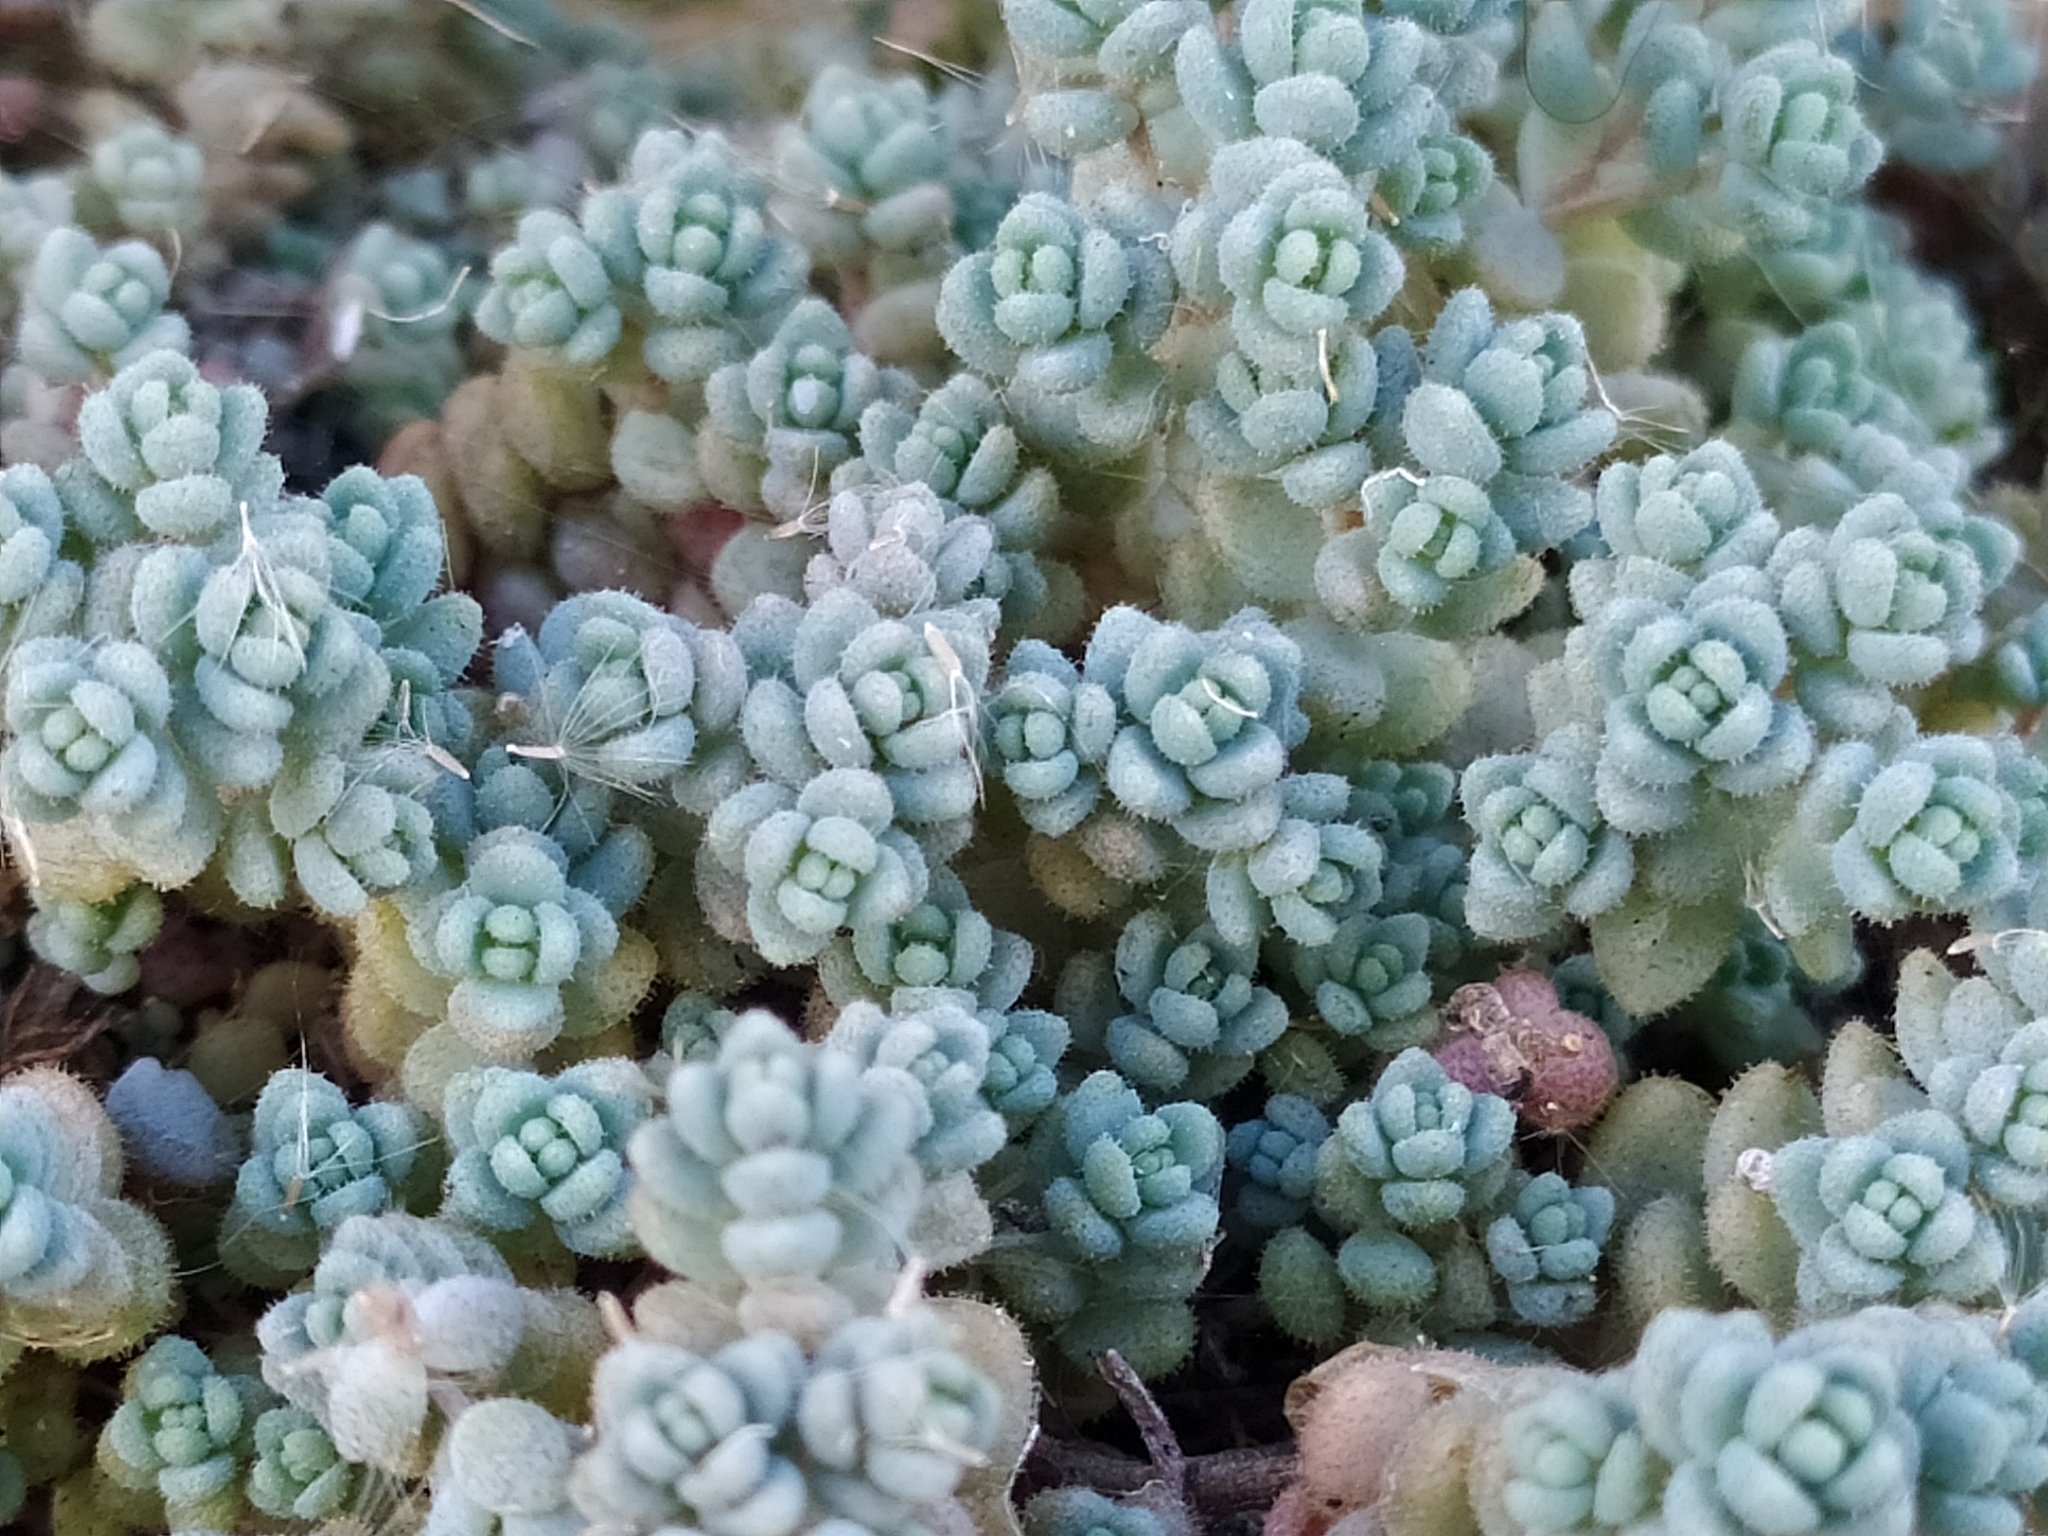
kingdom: Plantae
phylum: Tracheophyta
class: Magnoliopsida
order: Saxifragales
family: Crassulaceae
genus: Sedum
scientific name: Sedum dasyphyllum
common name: Thick-leaf stonecrop
